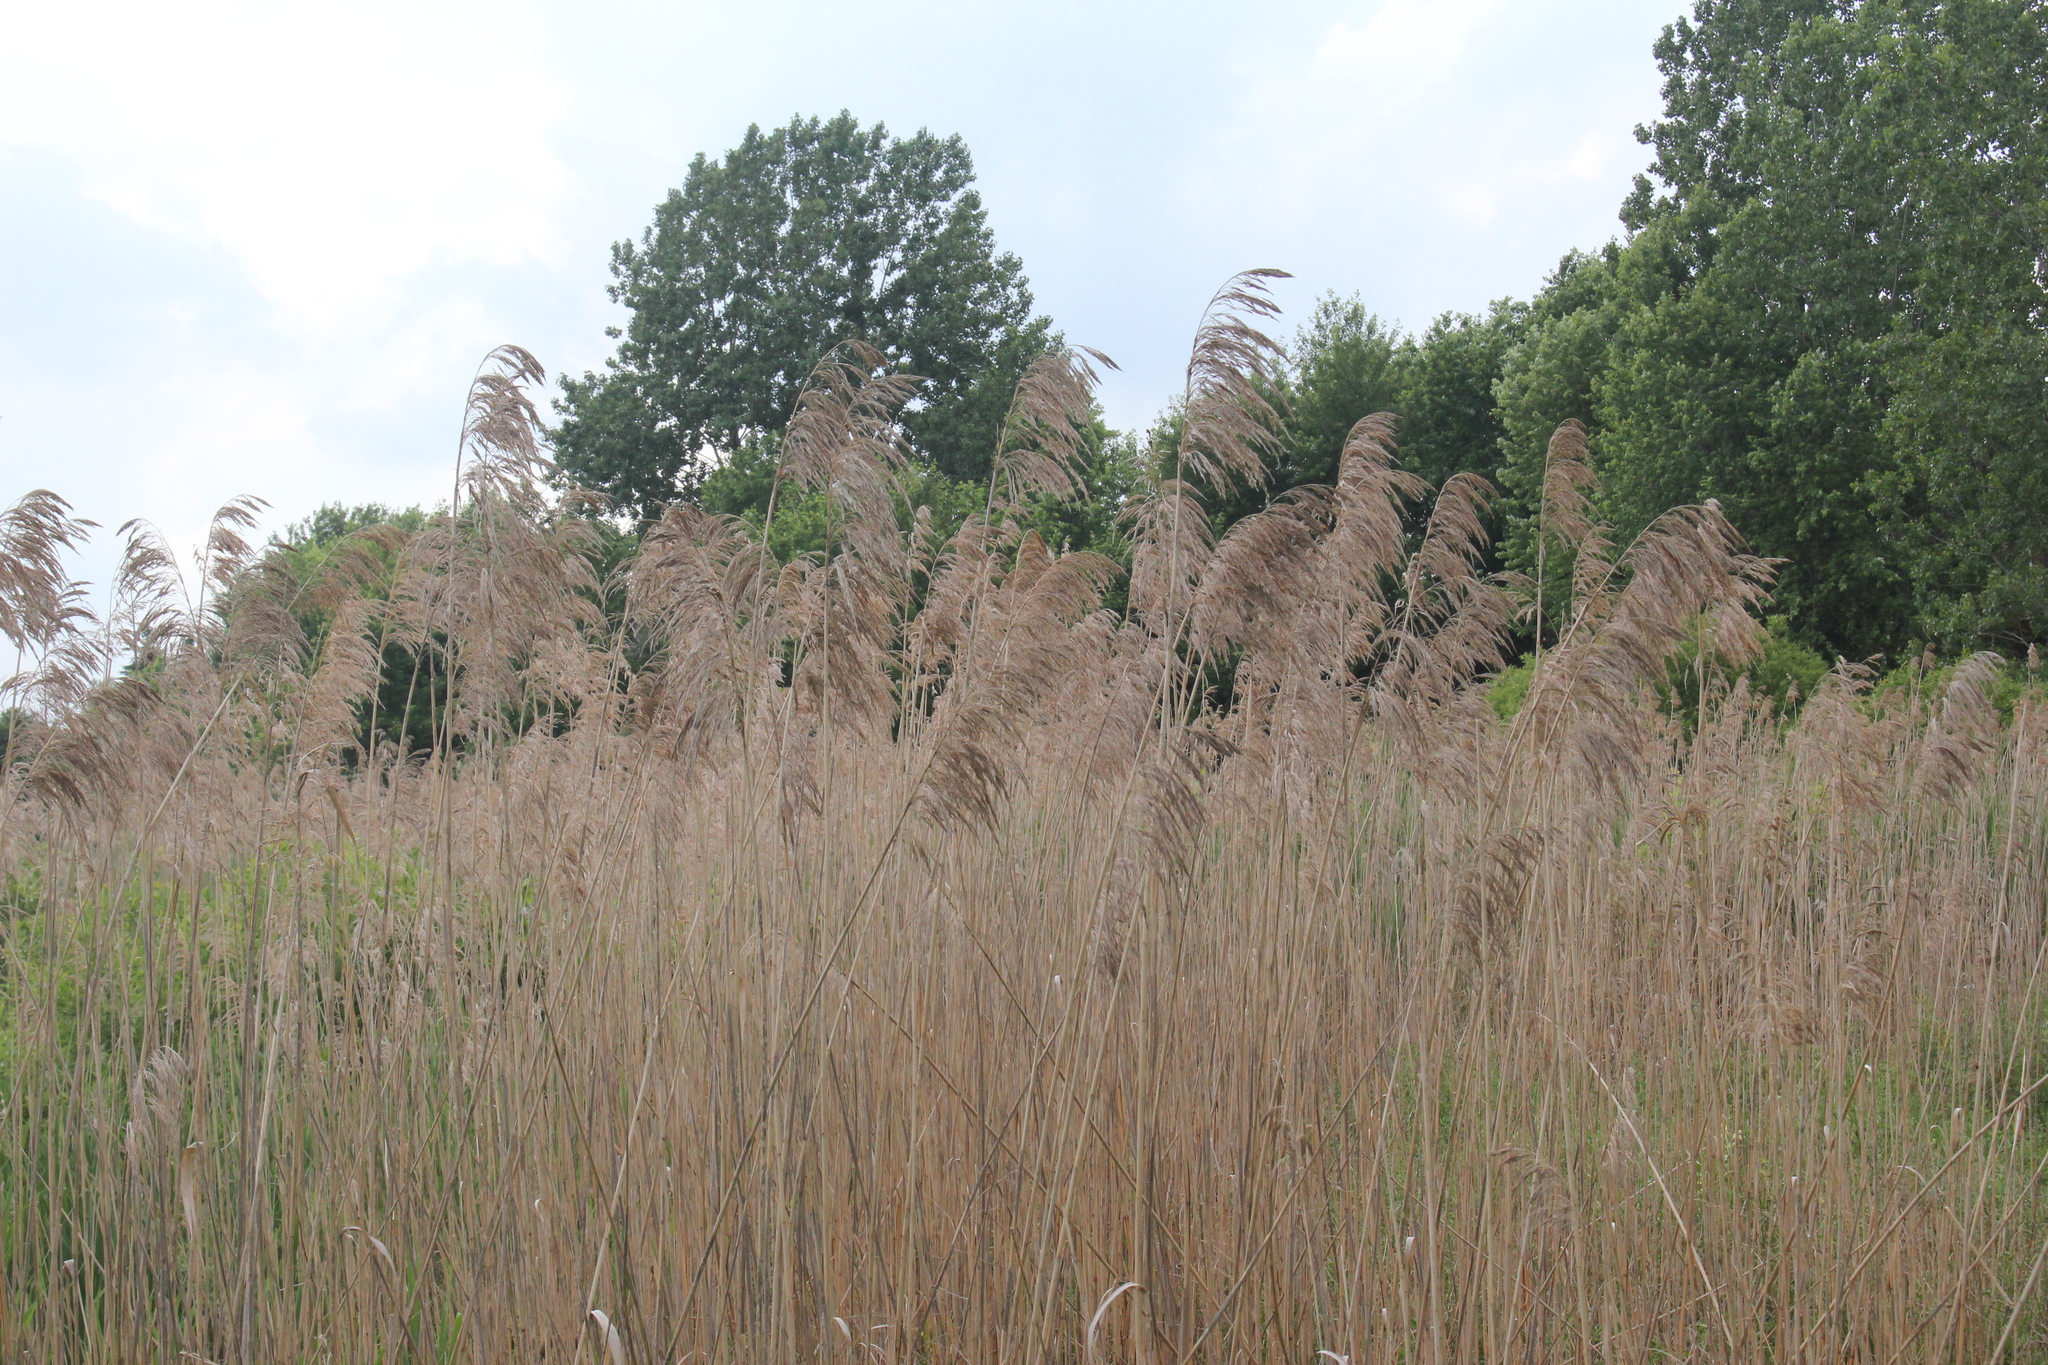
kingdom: Plantae
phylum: Tracheophyta
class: Liliopsida
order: Poales
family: Poaceae
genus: Phragmites
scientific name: Phragmites australis
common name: Common reed
